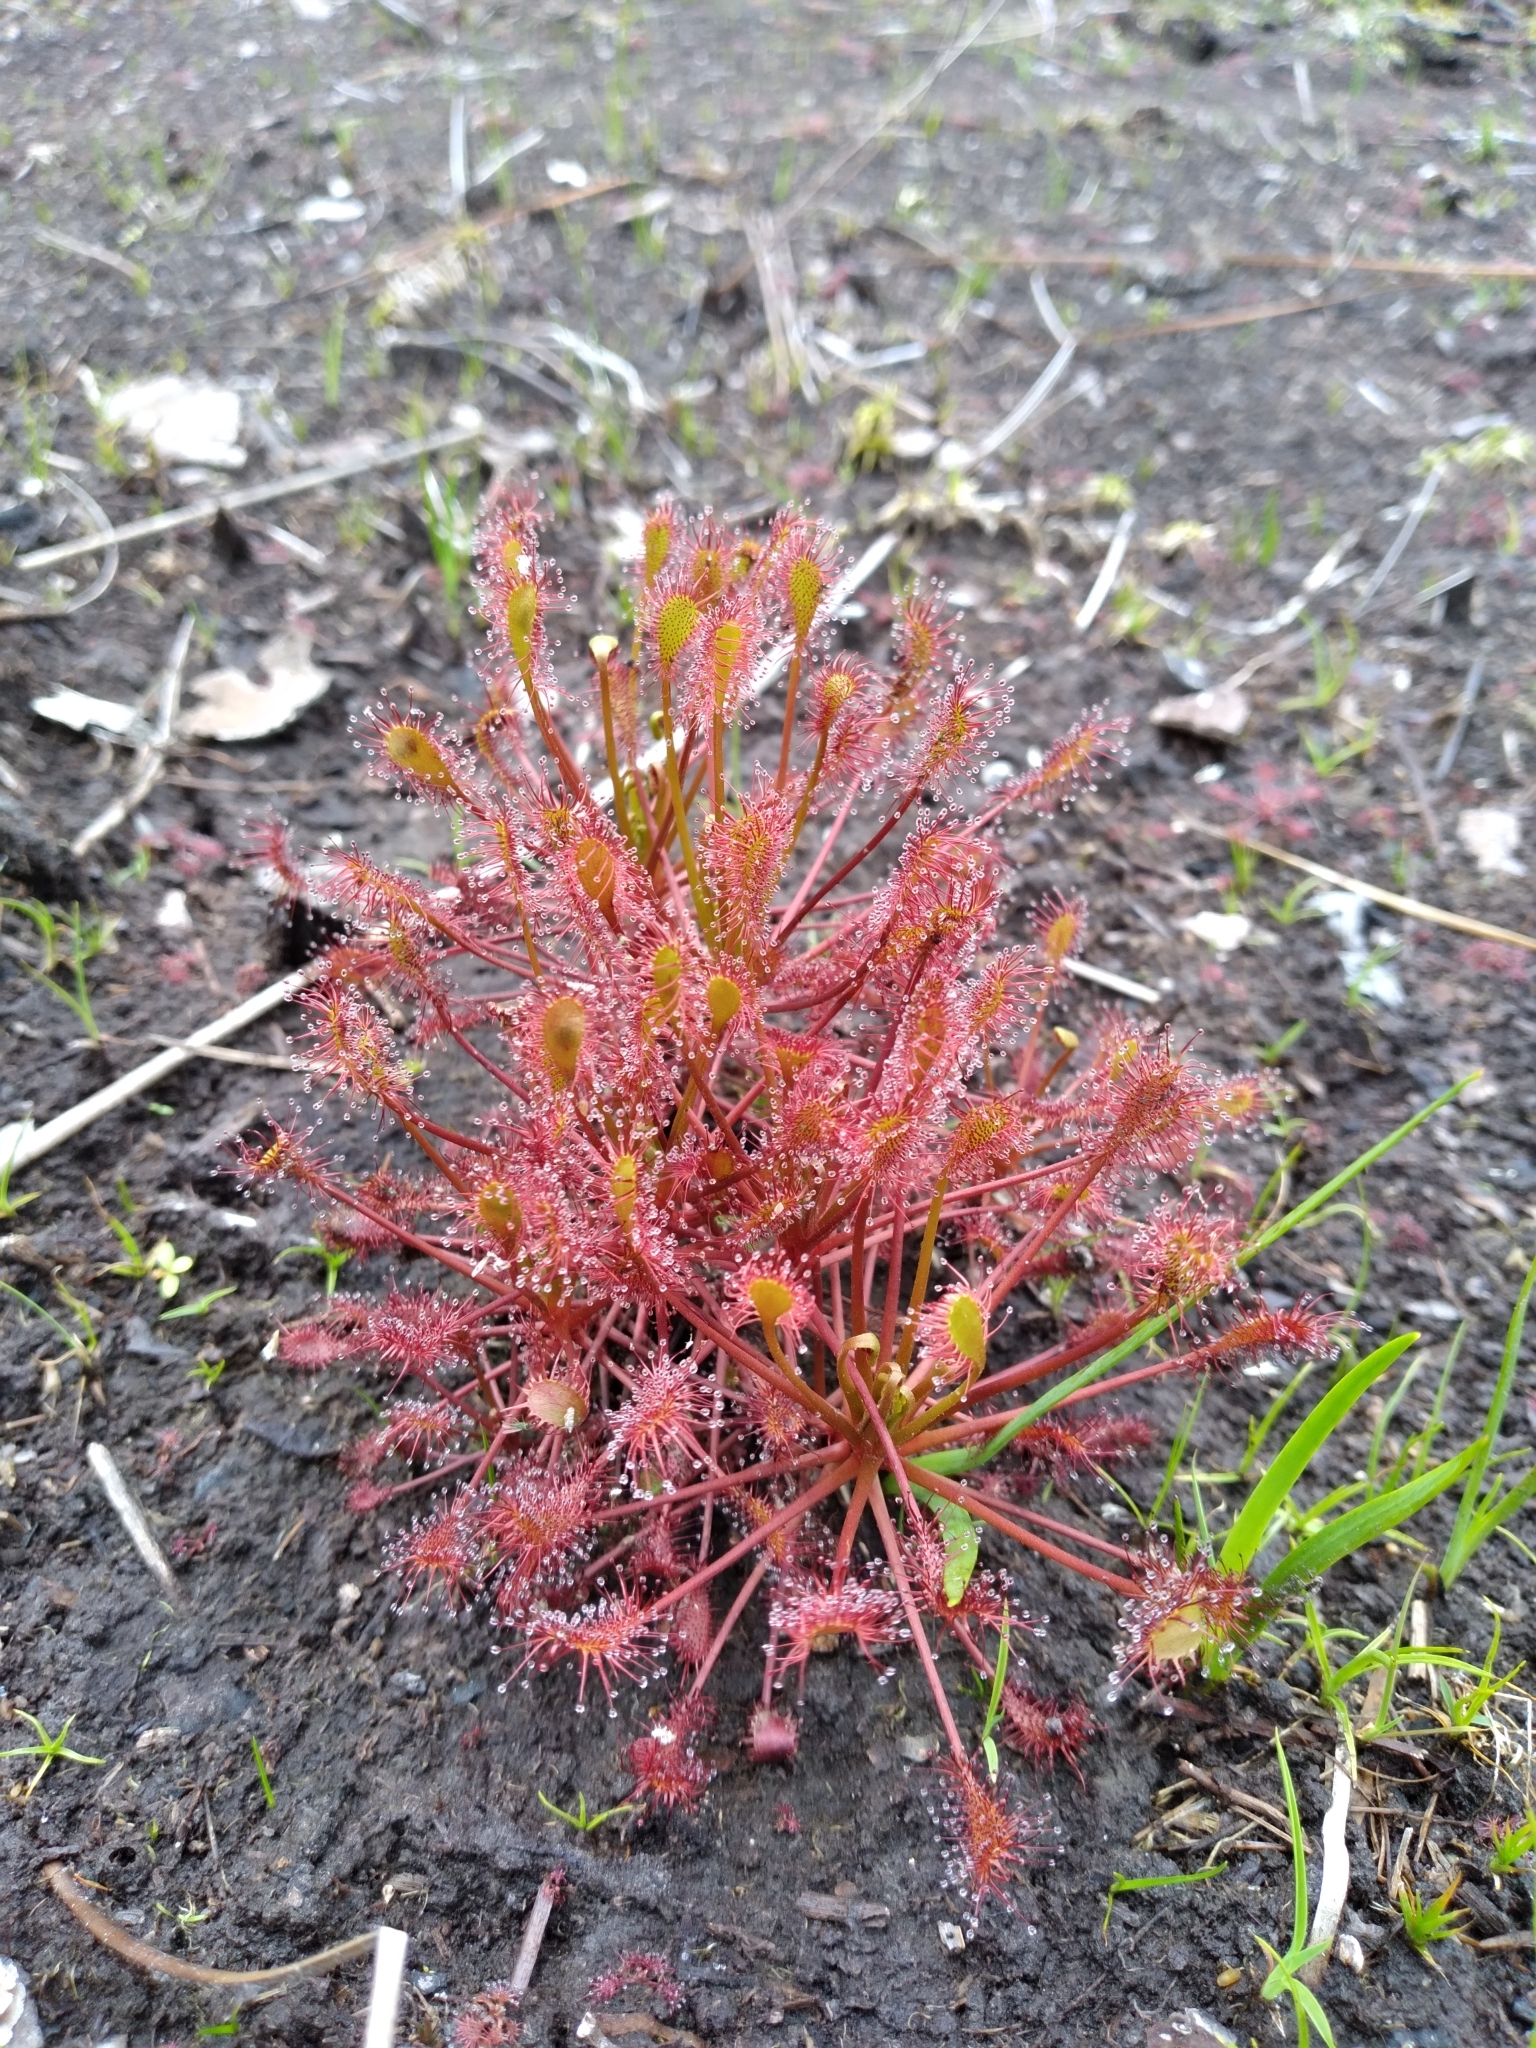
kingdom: Plantae
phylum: Tracheophyta
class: Magnoliopsida
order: Caryophyllales
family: Droseraceae
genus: Drosera
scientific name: Drosera intermedia
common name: Oblong-leaved sundew
